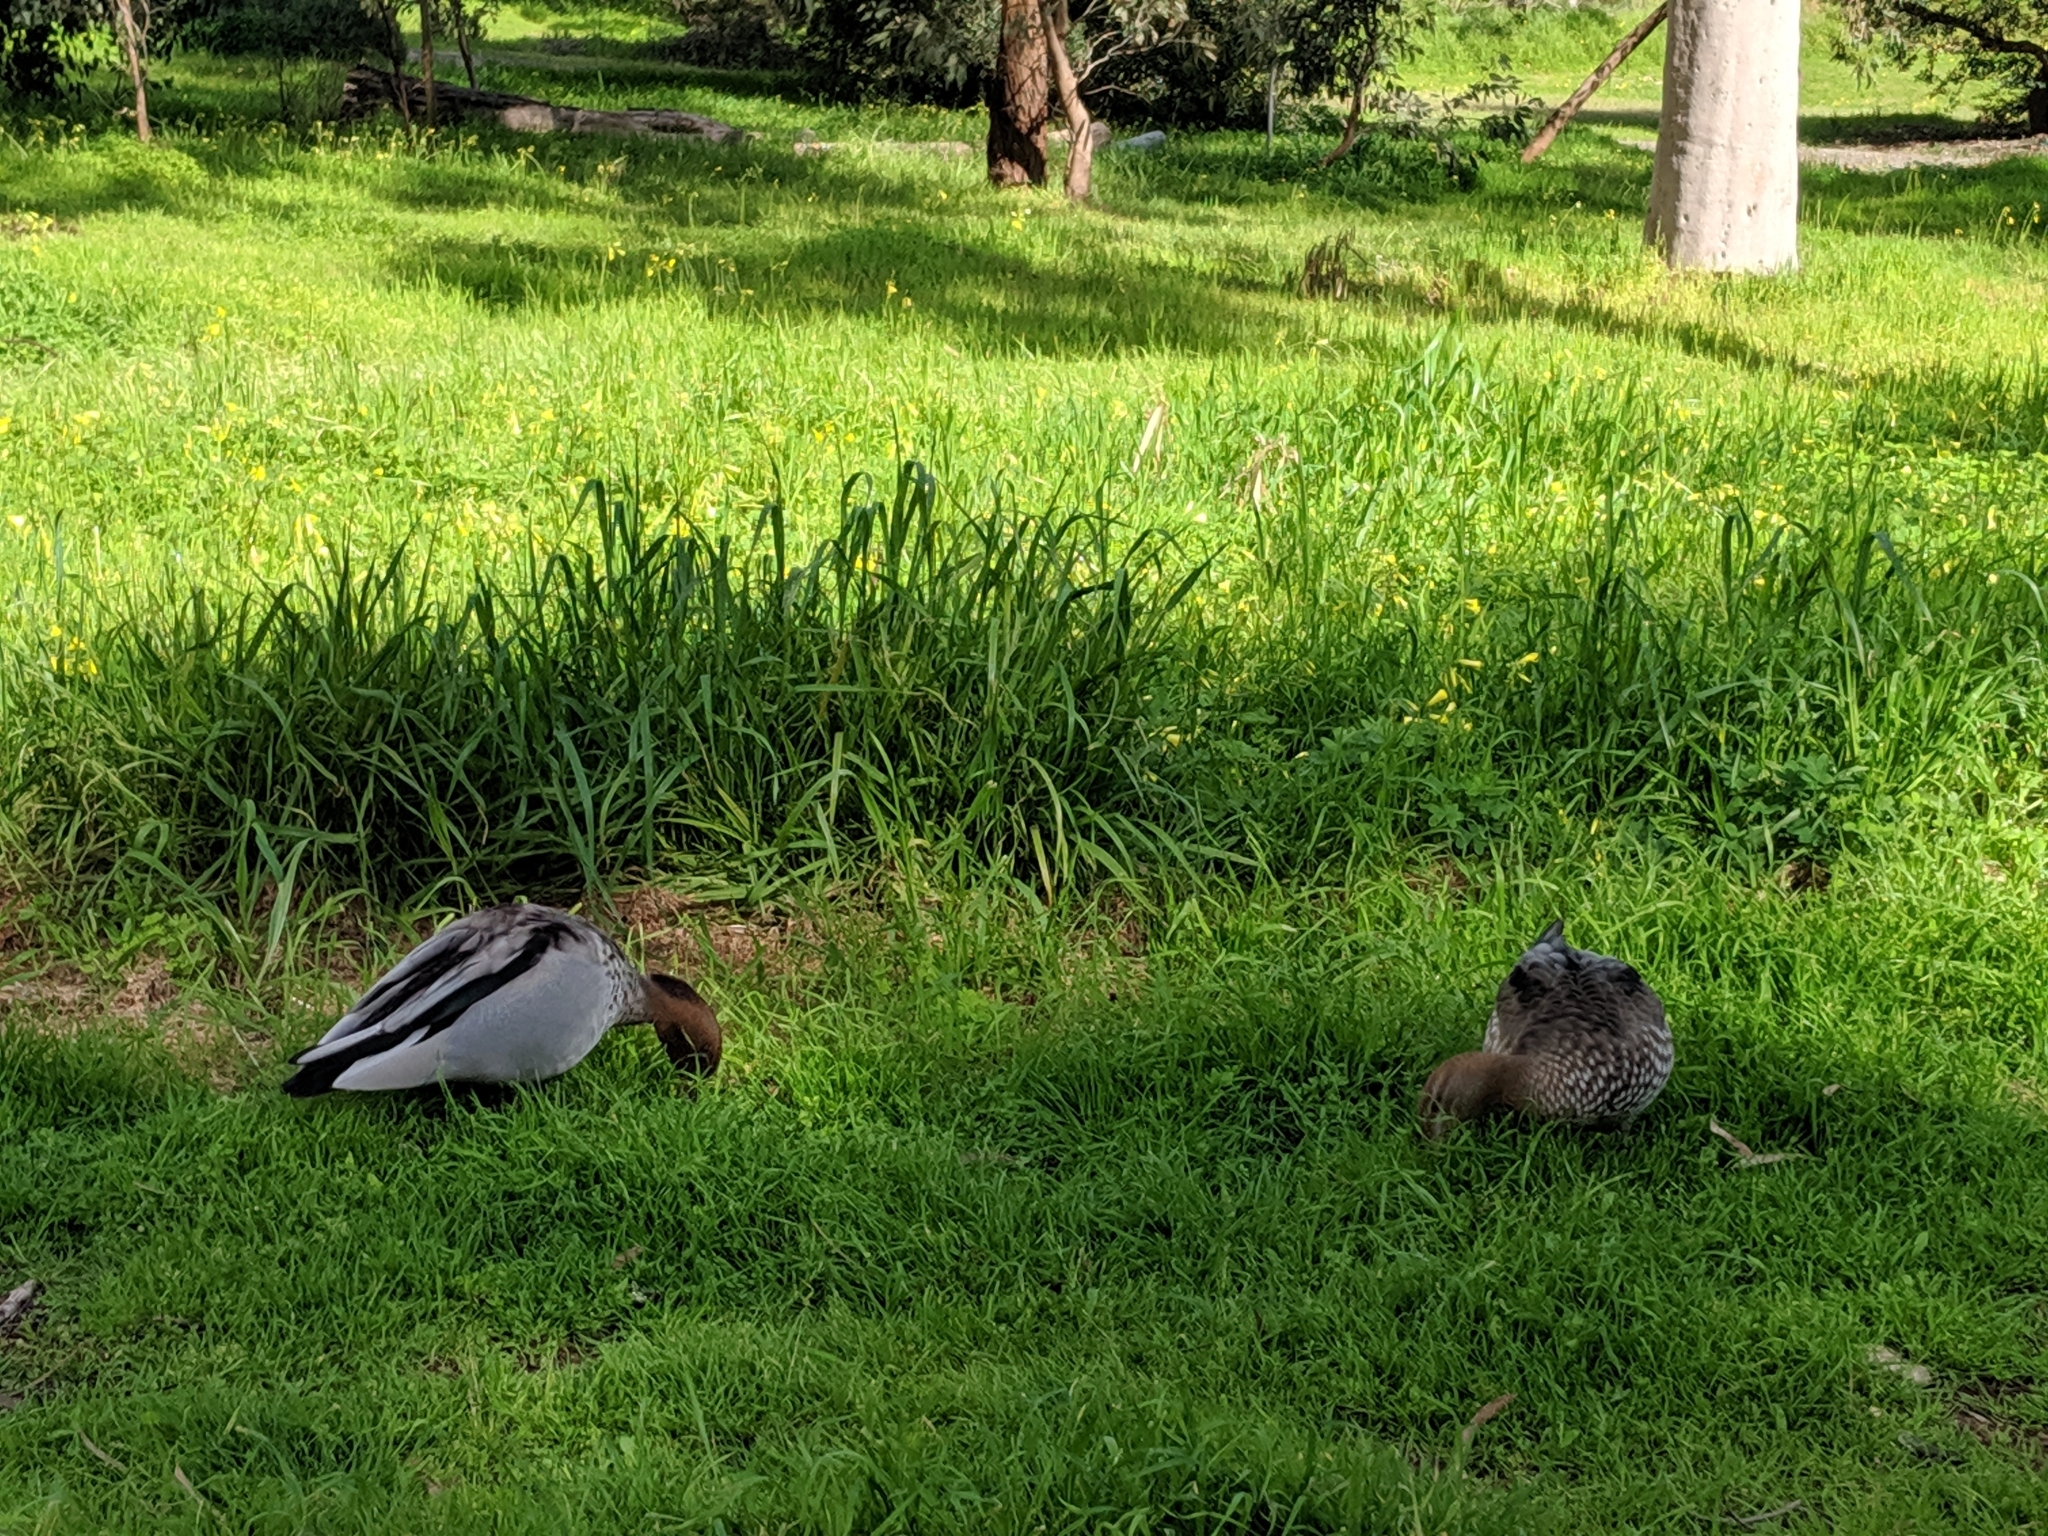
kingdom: Animalia
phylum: Chordata
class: Aves
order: Anseriformes
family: Anatidae
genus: Chenonetta
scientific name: Chenonetta jubata
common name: Maned duck
